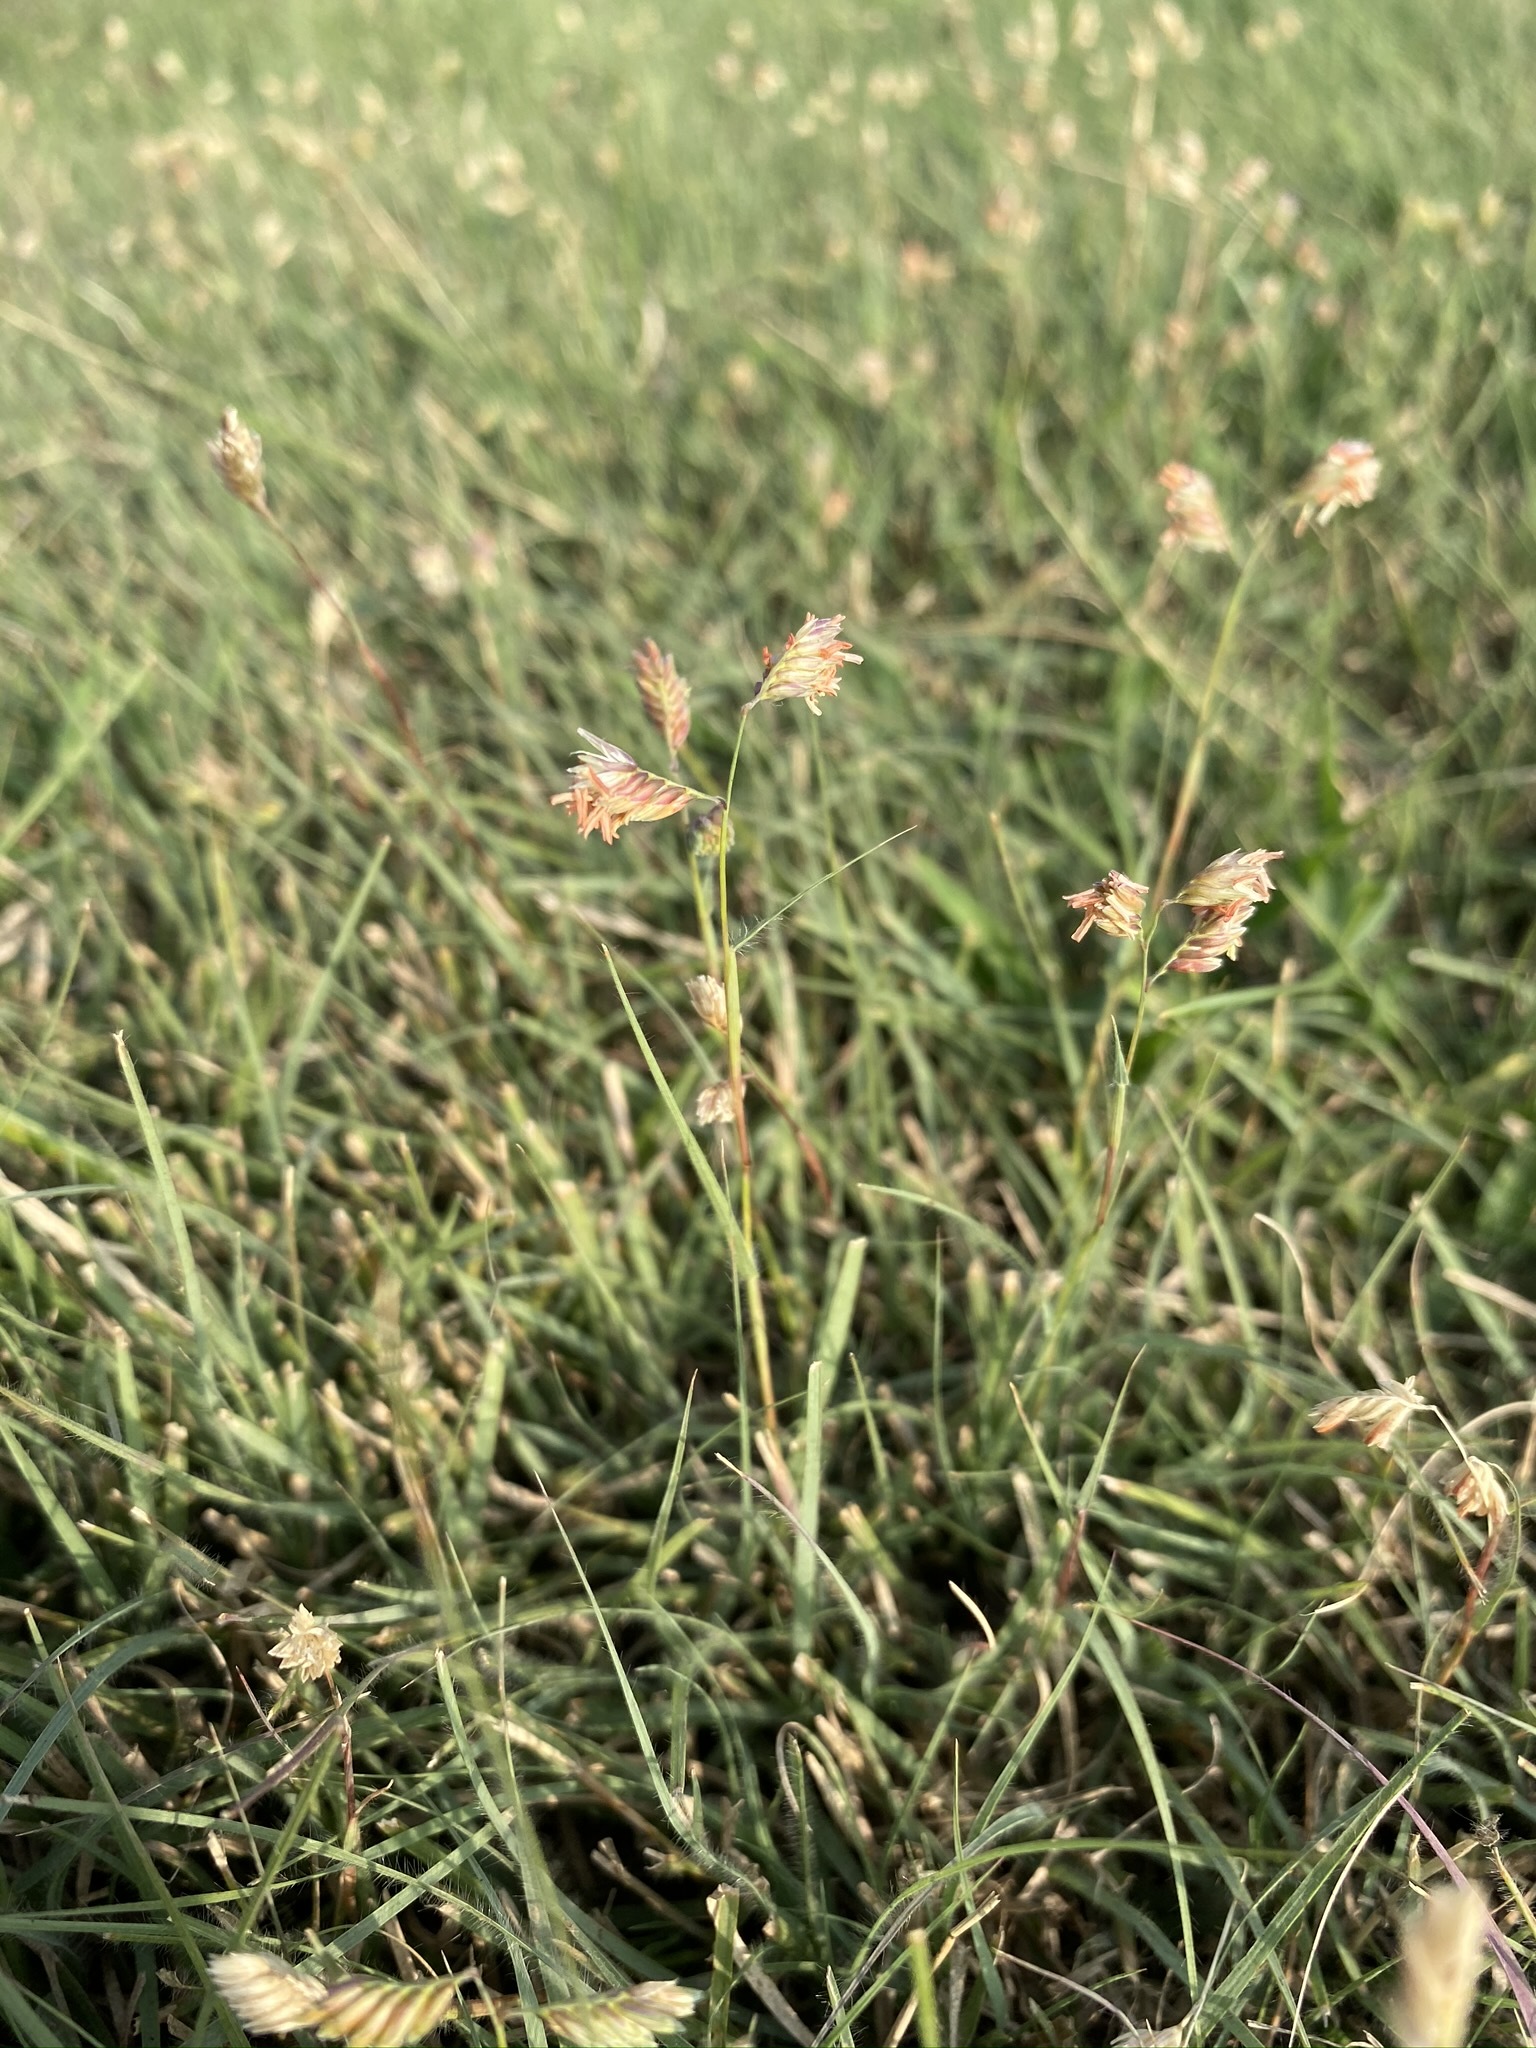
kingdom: Plantae
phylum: Tracheophyta
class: Liliopsida
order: Poales
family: Poaceae
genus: Bouteloua
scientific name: Bouteloua dactyloides
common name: Buffalo grass
